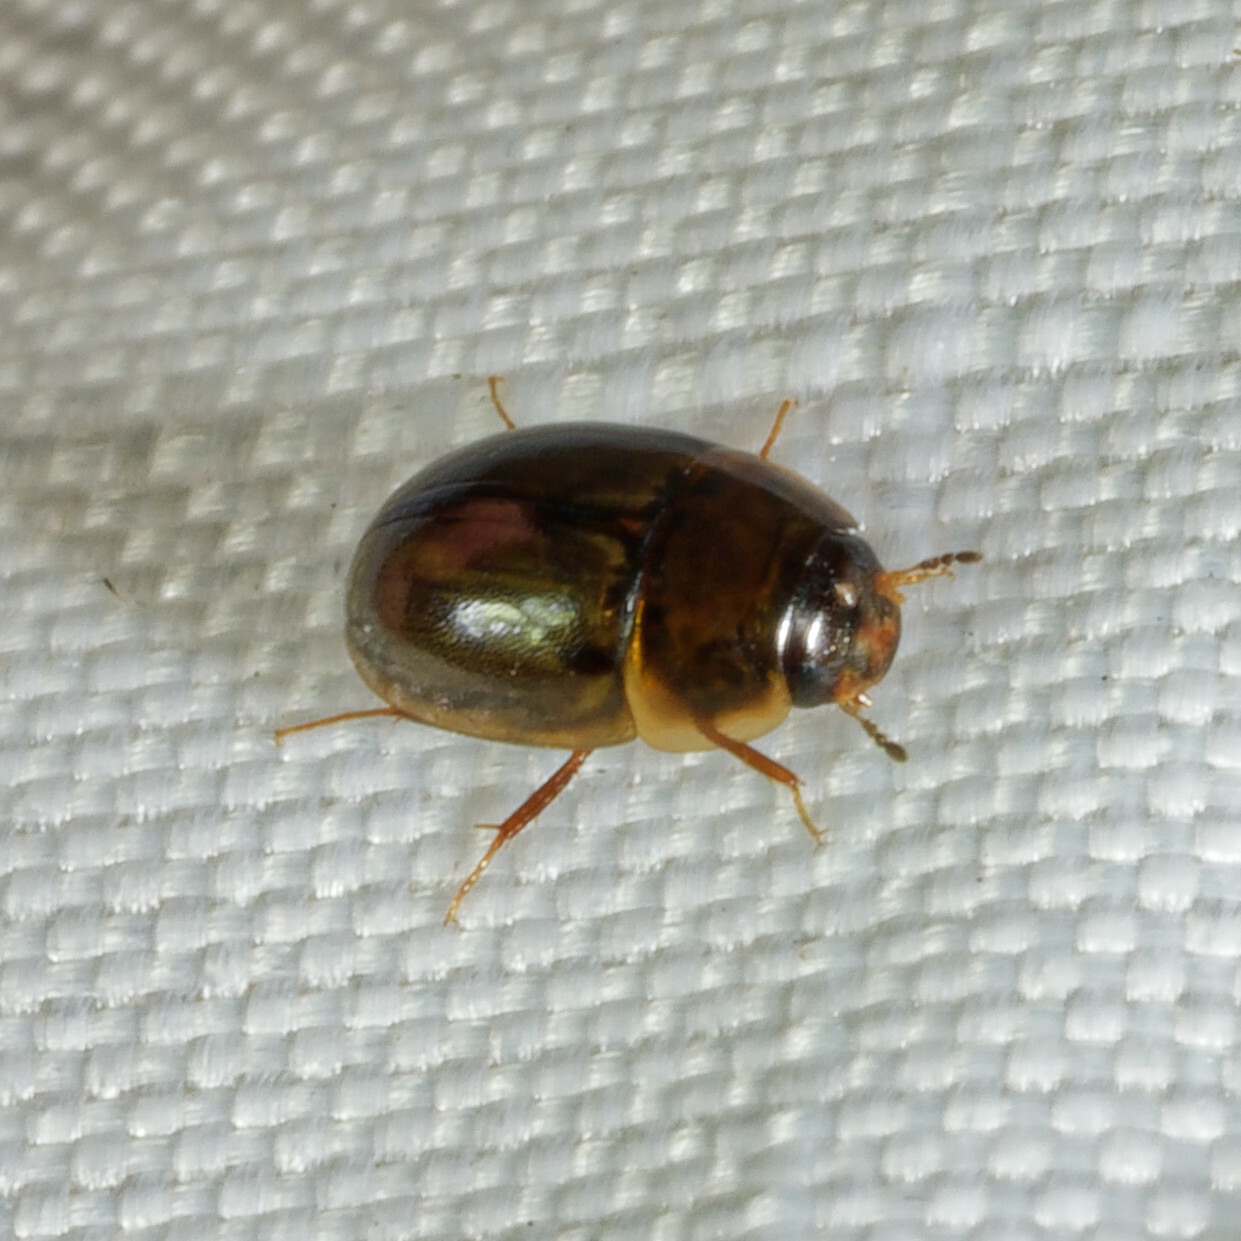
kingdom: Animalia
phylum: Arthropoda
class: Insecta
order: Coleoptera
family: Hydrophilidae
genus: Enochrus
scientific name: Enochrus
